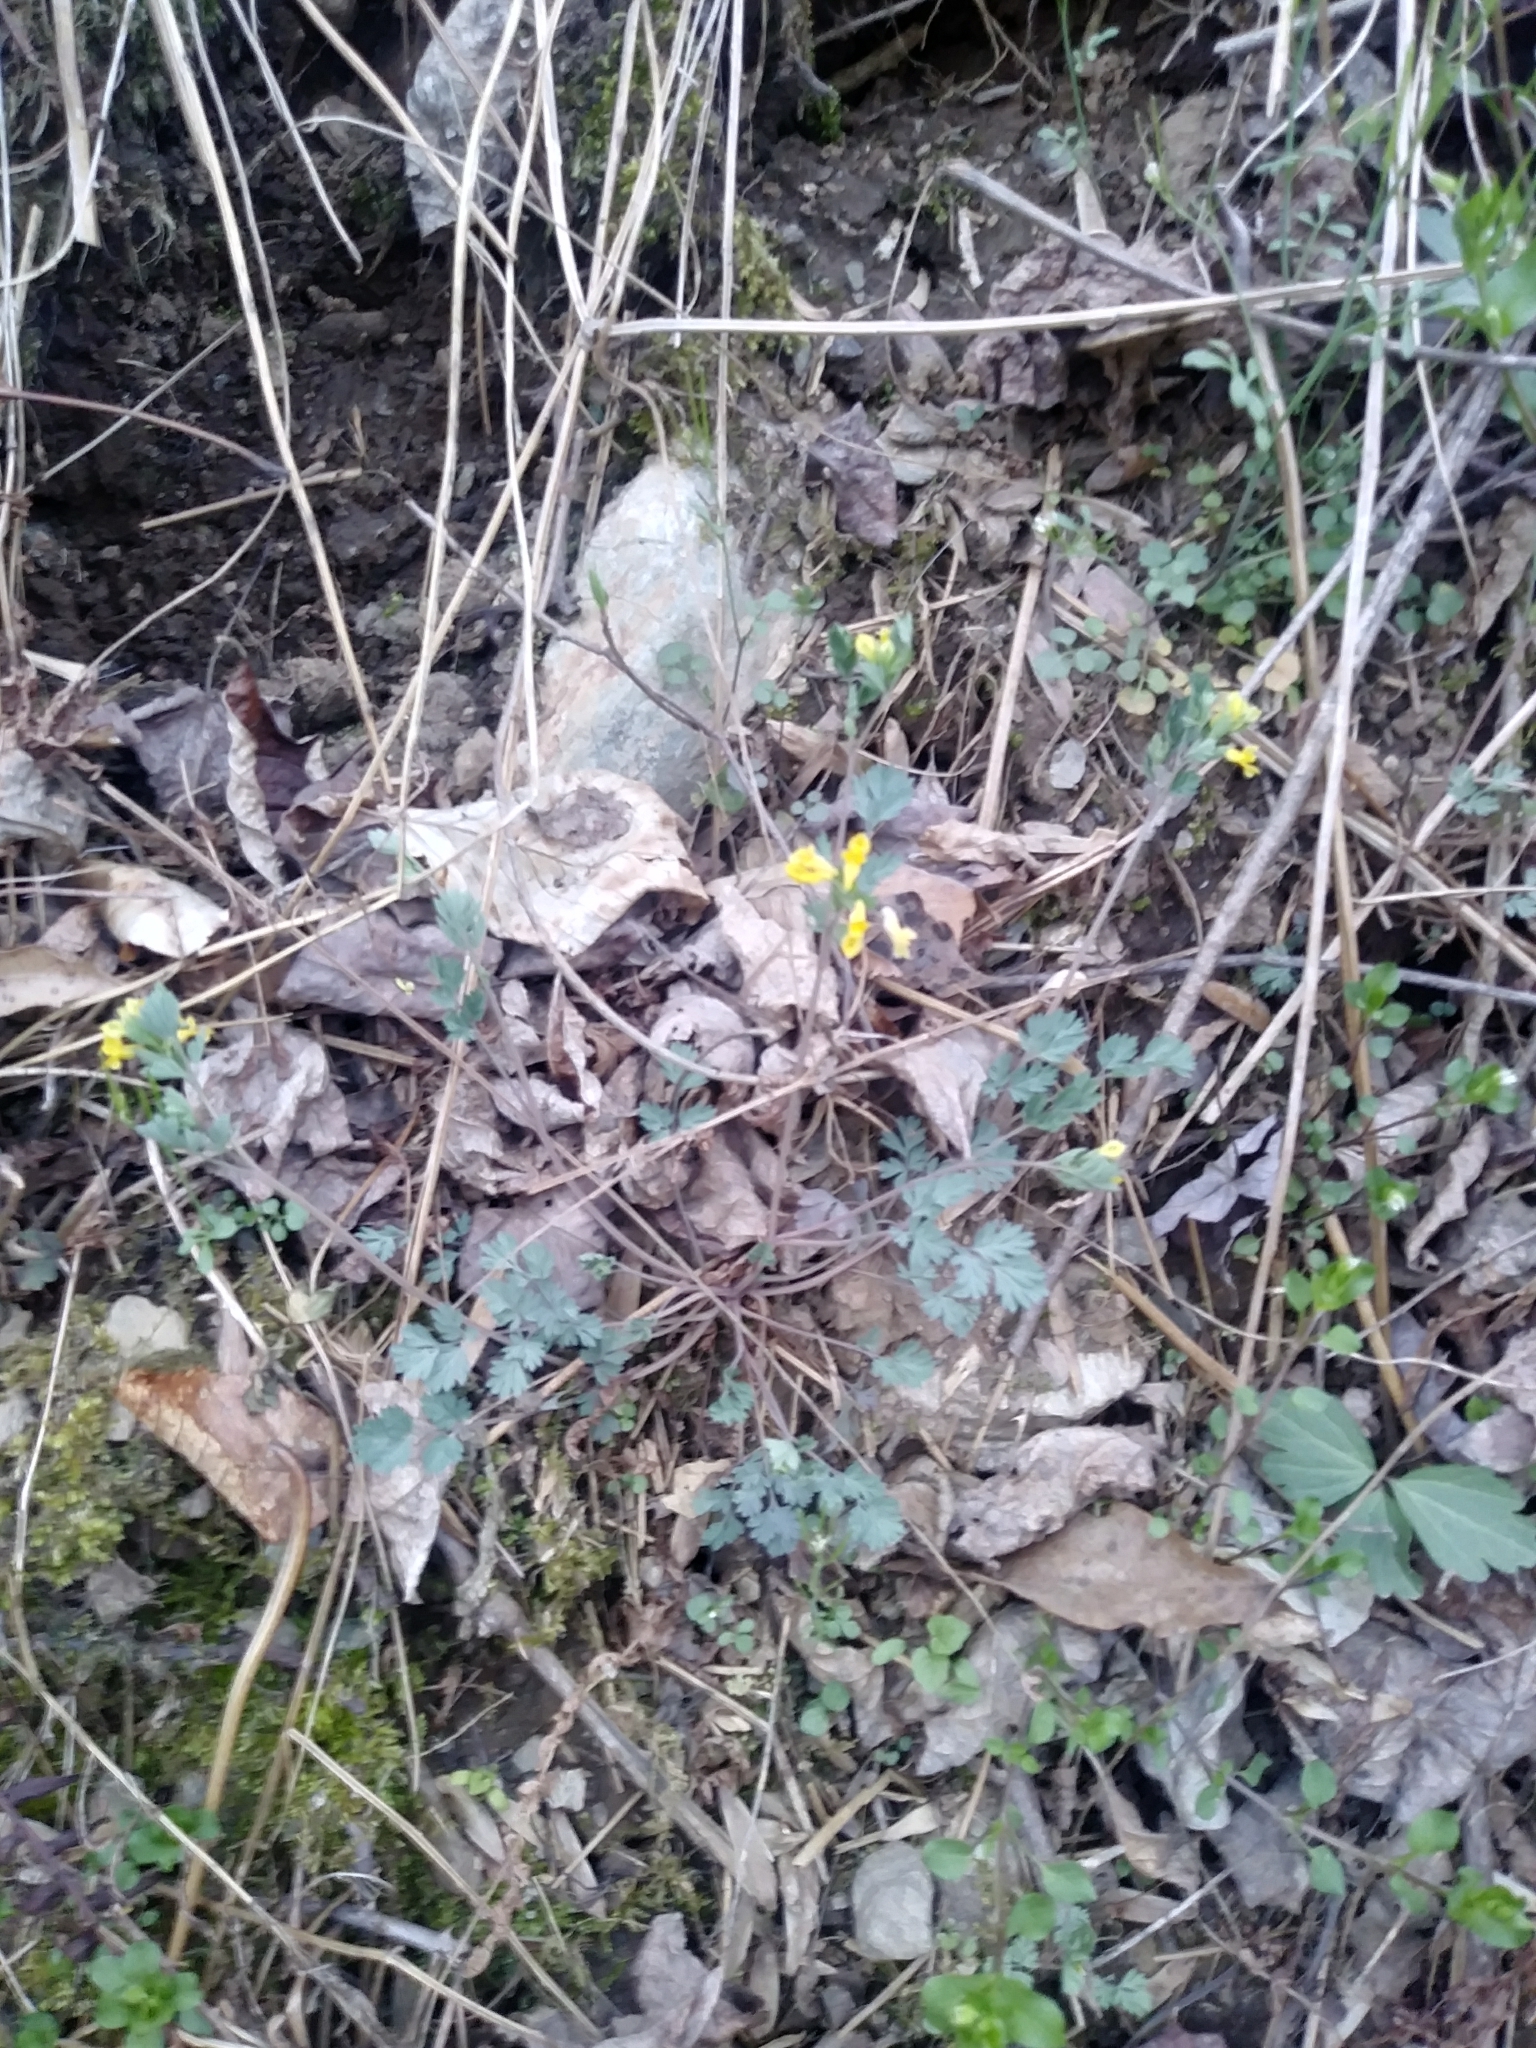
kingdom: Plantae
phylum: Tracheophyta
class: Magnoliopsida
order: Ranunculales
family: Papaveraceae
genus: Corydalis
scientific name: Corydalis flavula
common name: Yellow corydalis
